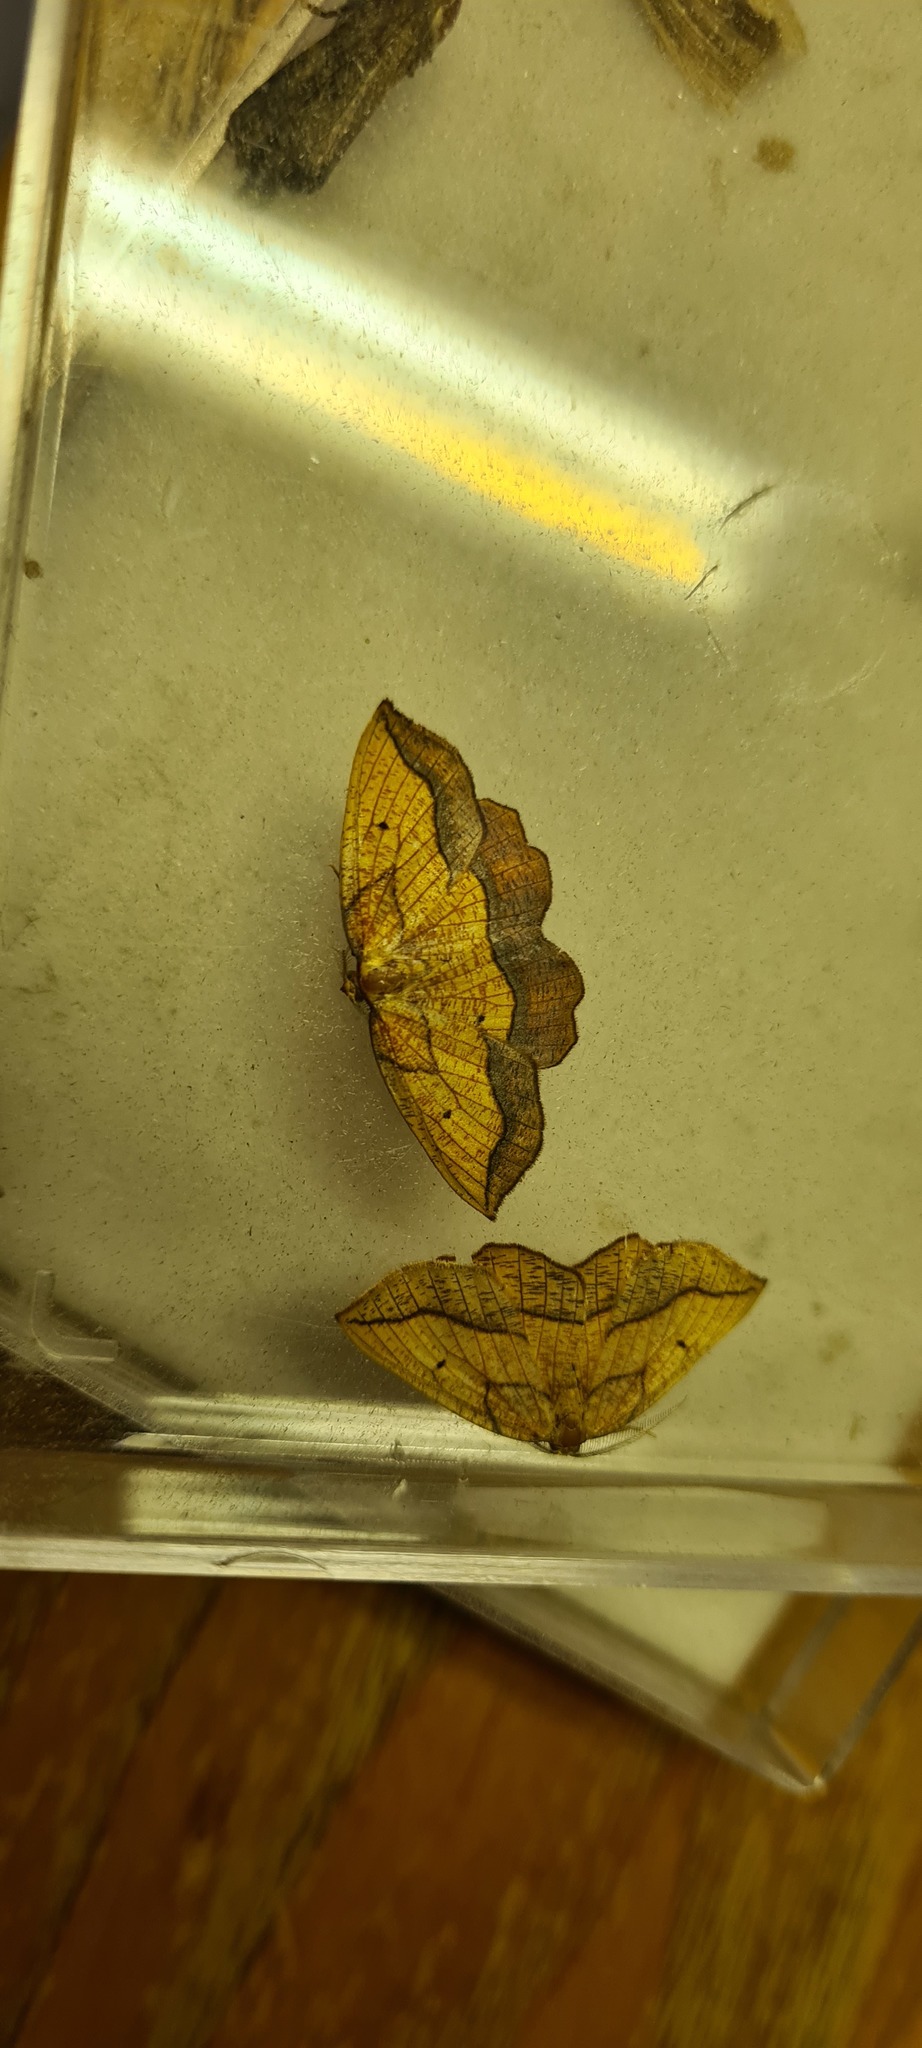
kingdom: Animalia
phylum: Arthropoda
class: Insecta
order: Lepidoptera
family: Geometridae
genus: Epione
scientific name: Epione repandaria
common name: Bordered beauty
